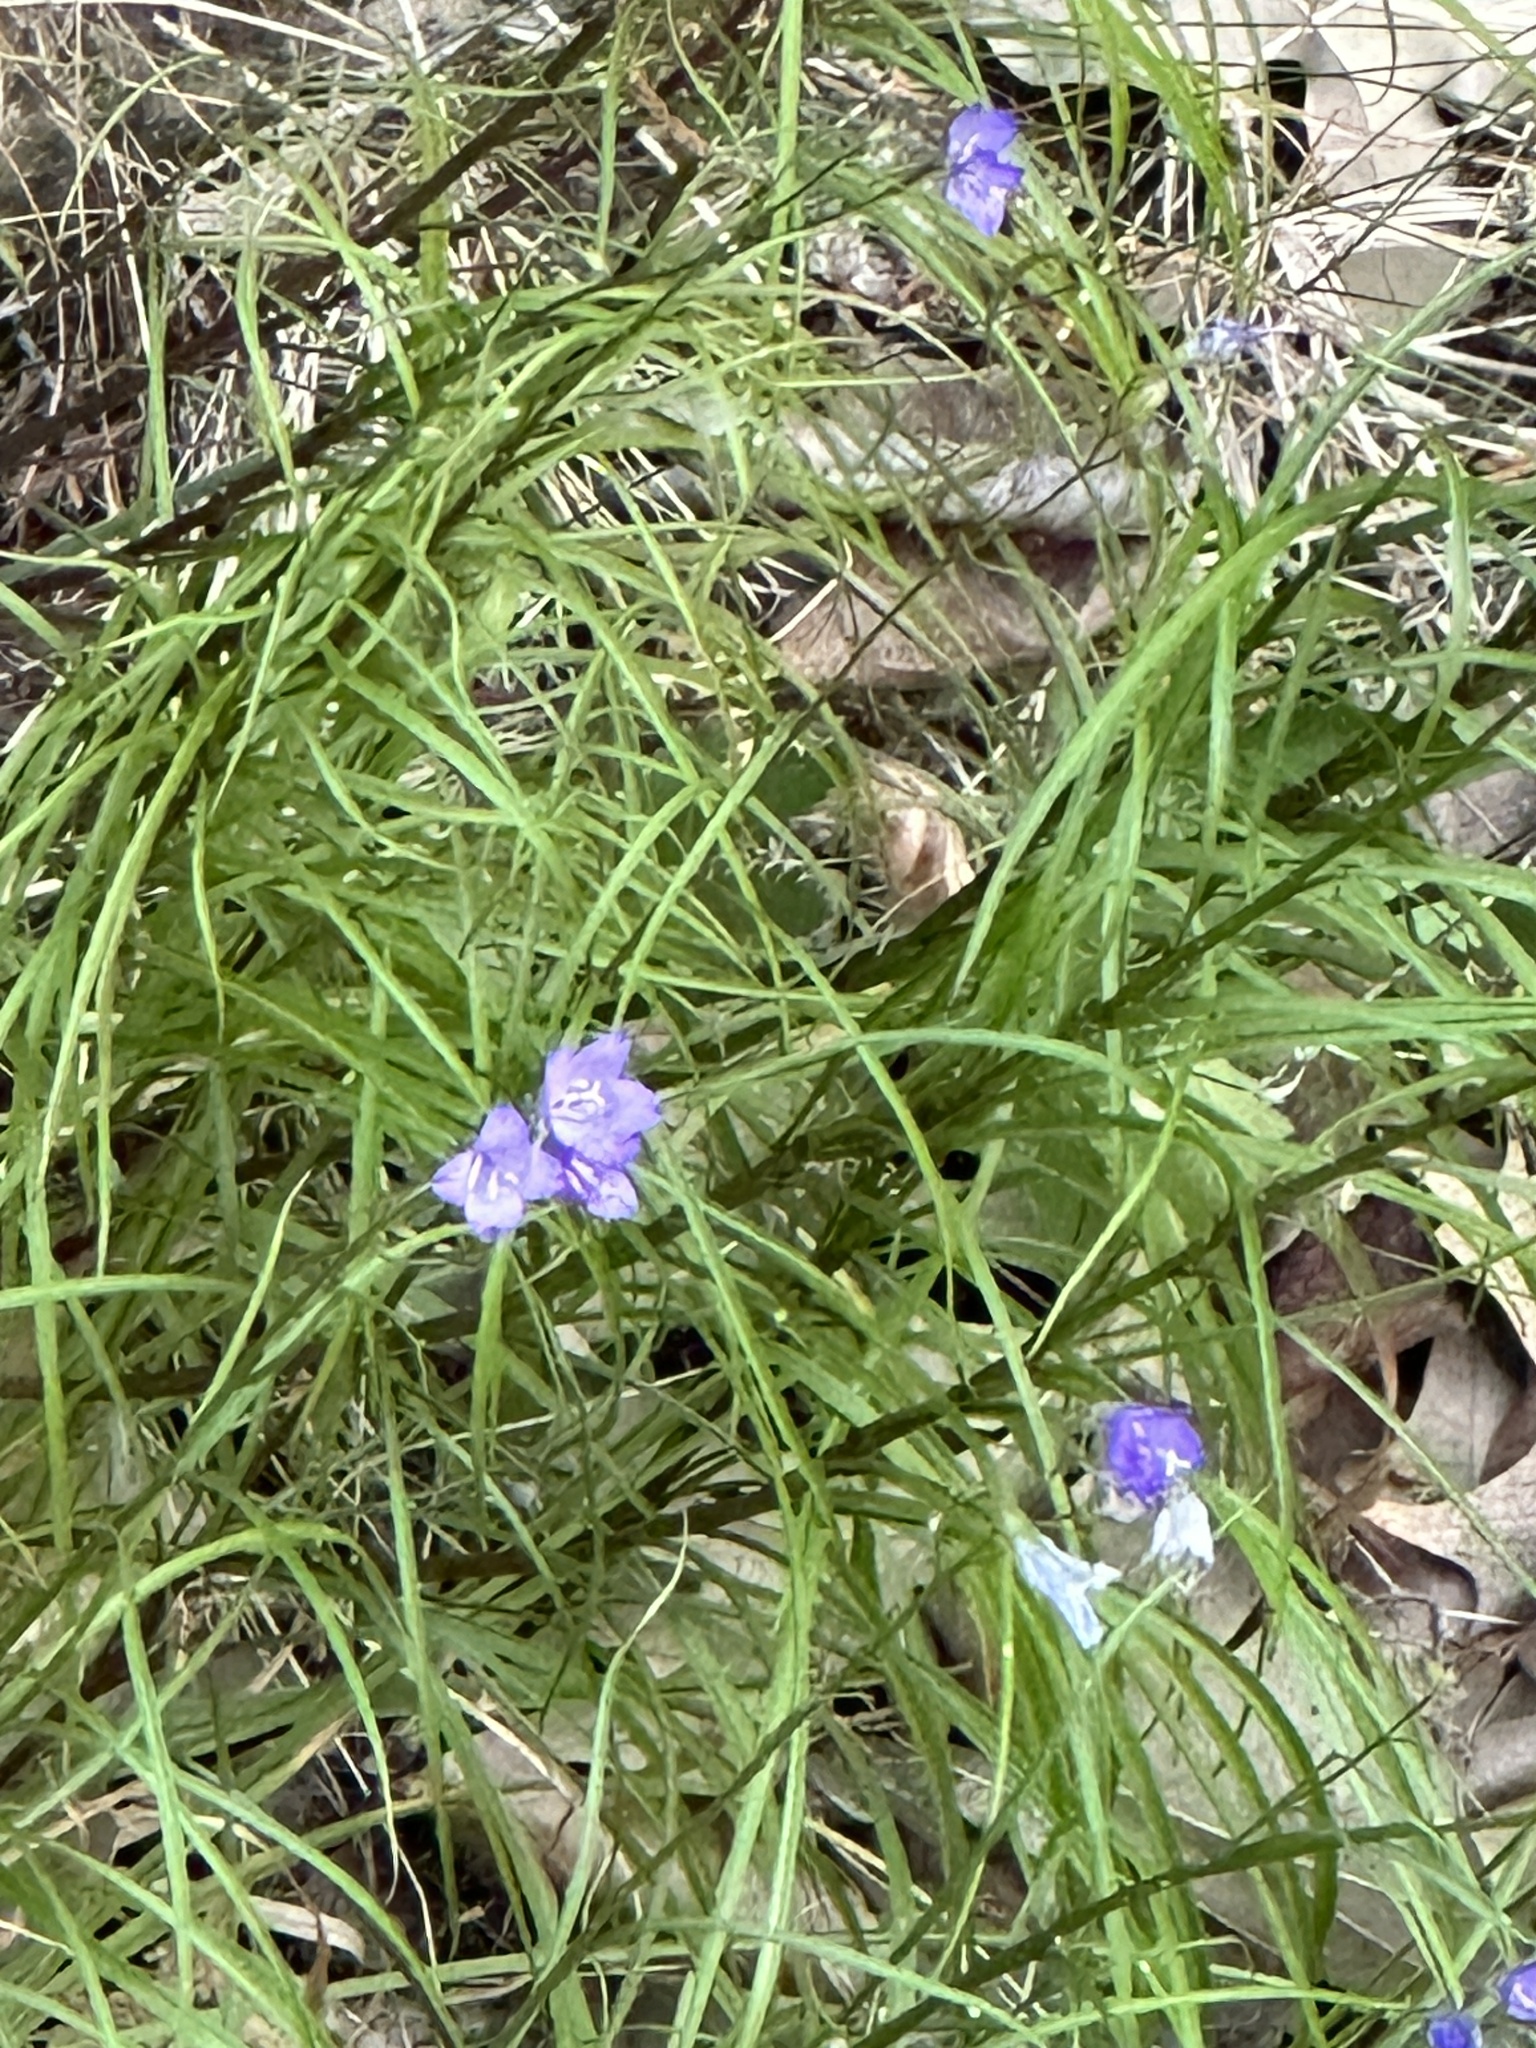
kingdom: Plantae
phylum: Tracheophyta
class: Magnoliopsida
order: Asterales
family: Campanulaceae
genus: Campanula
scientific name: Campanula intercedens
